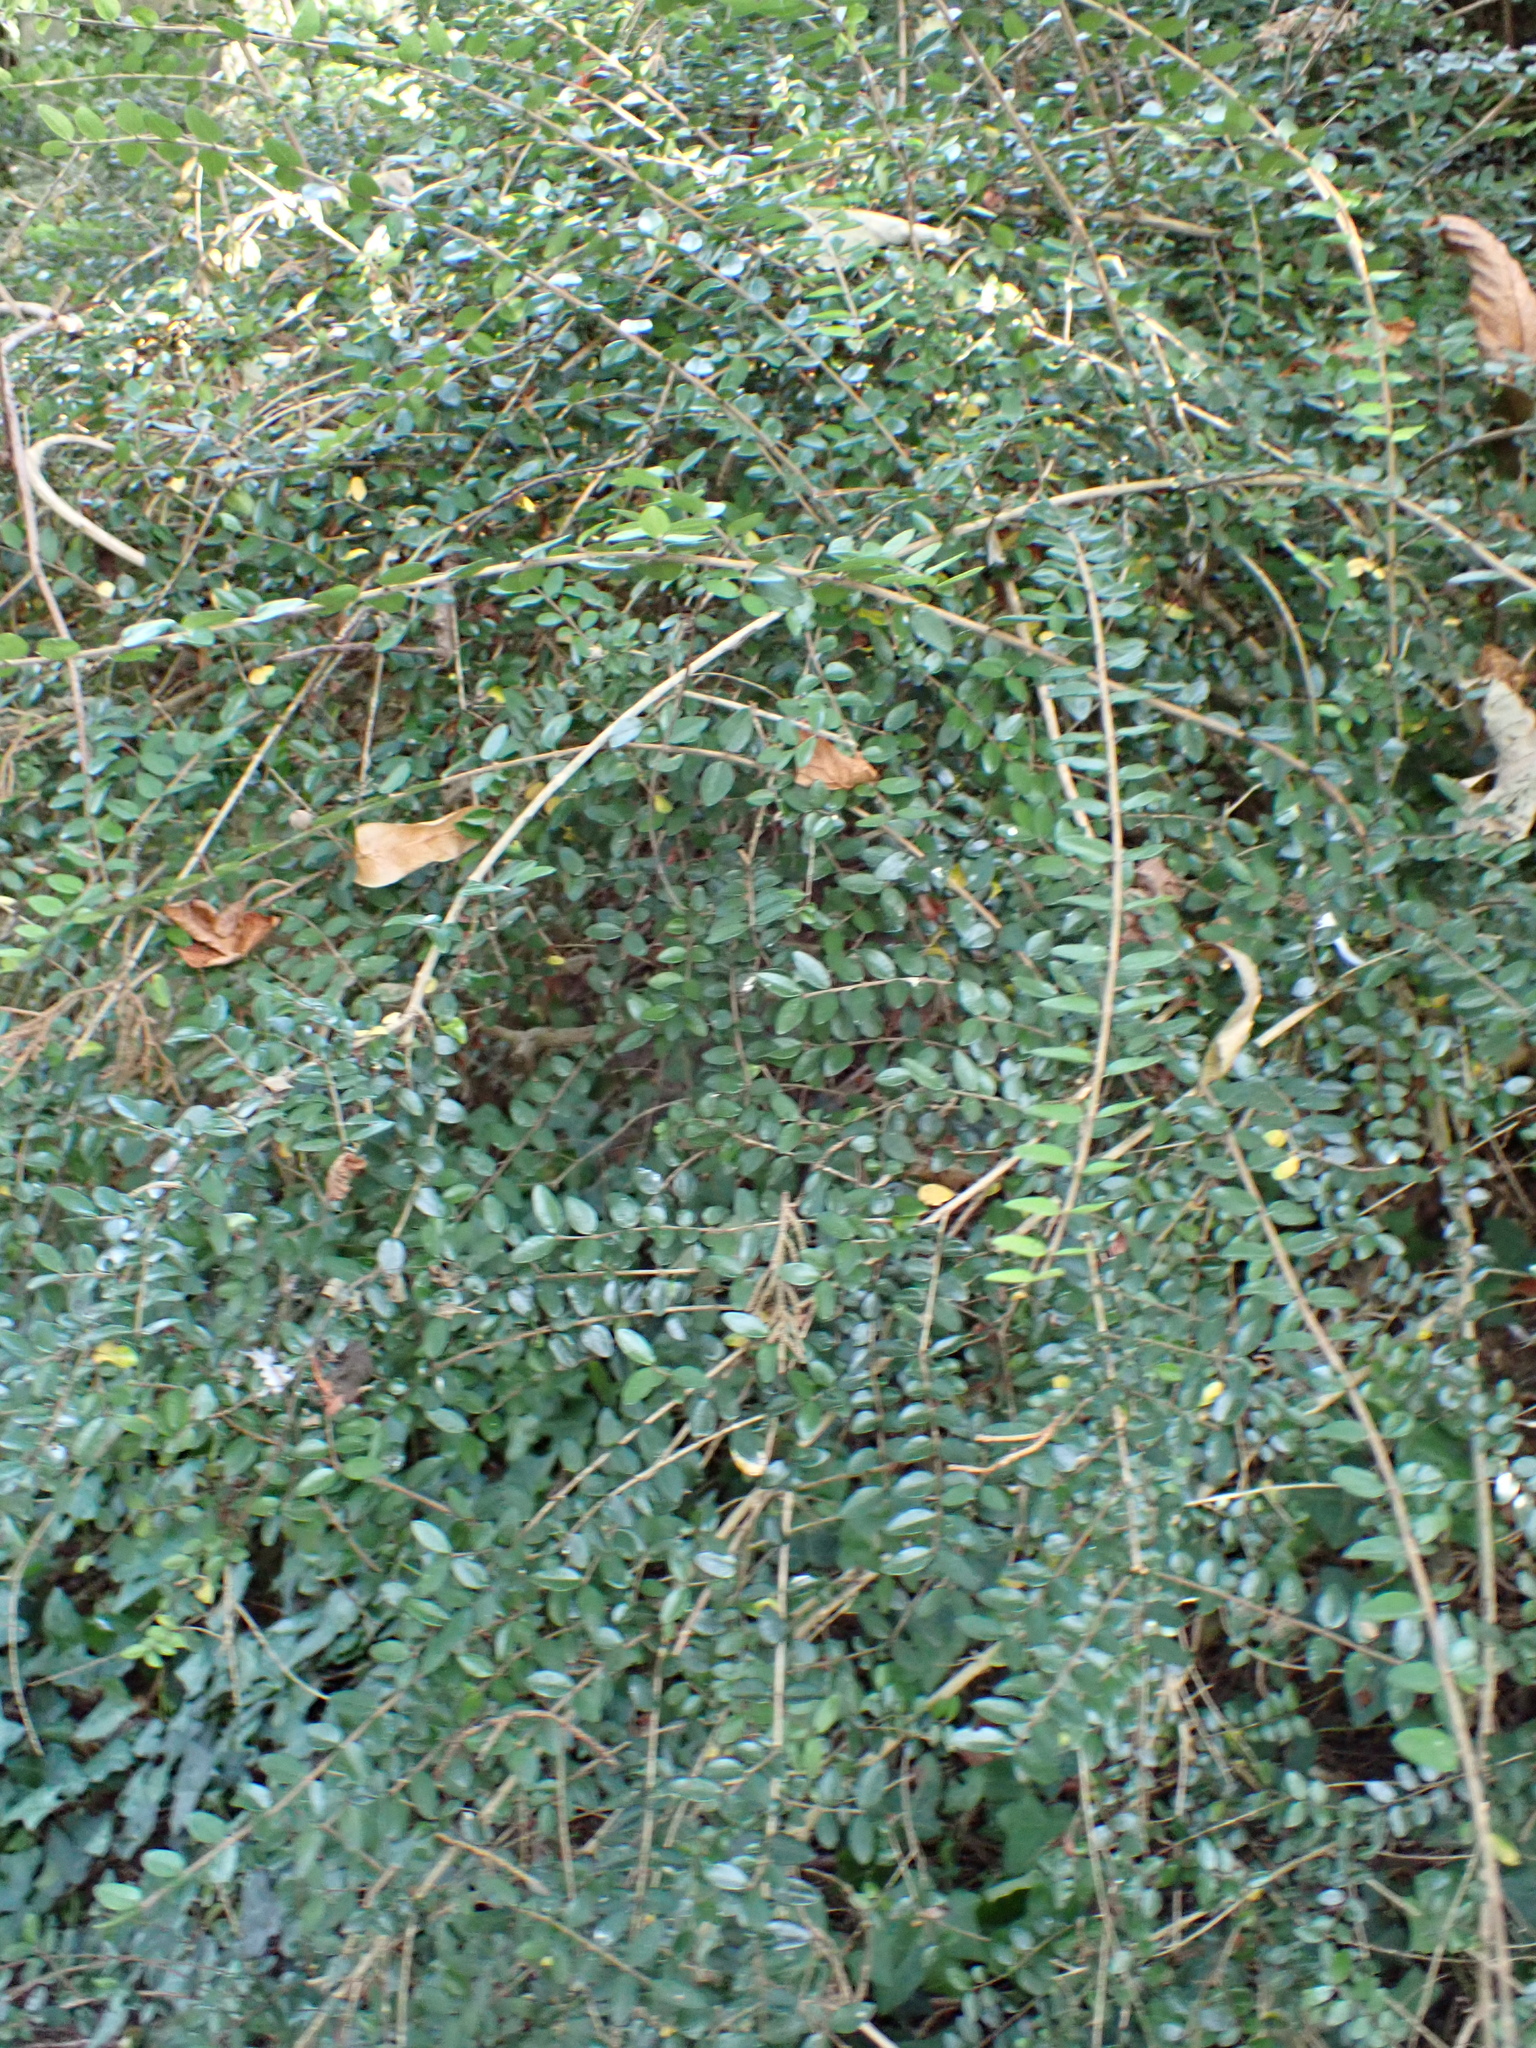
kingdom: Plantae
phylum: Tracheophyta
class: Magnoliopsida
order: Dipsacales
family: Caprifoliaceae
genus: Lonicera
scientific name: Lonicera ligustrina
